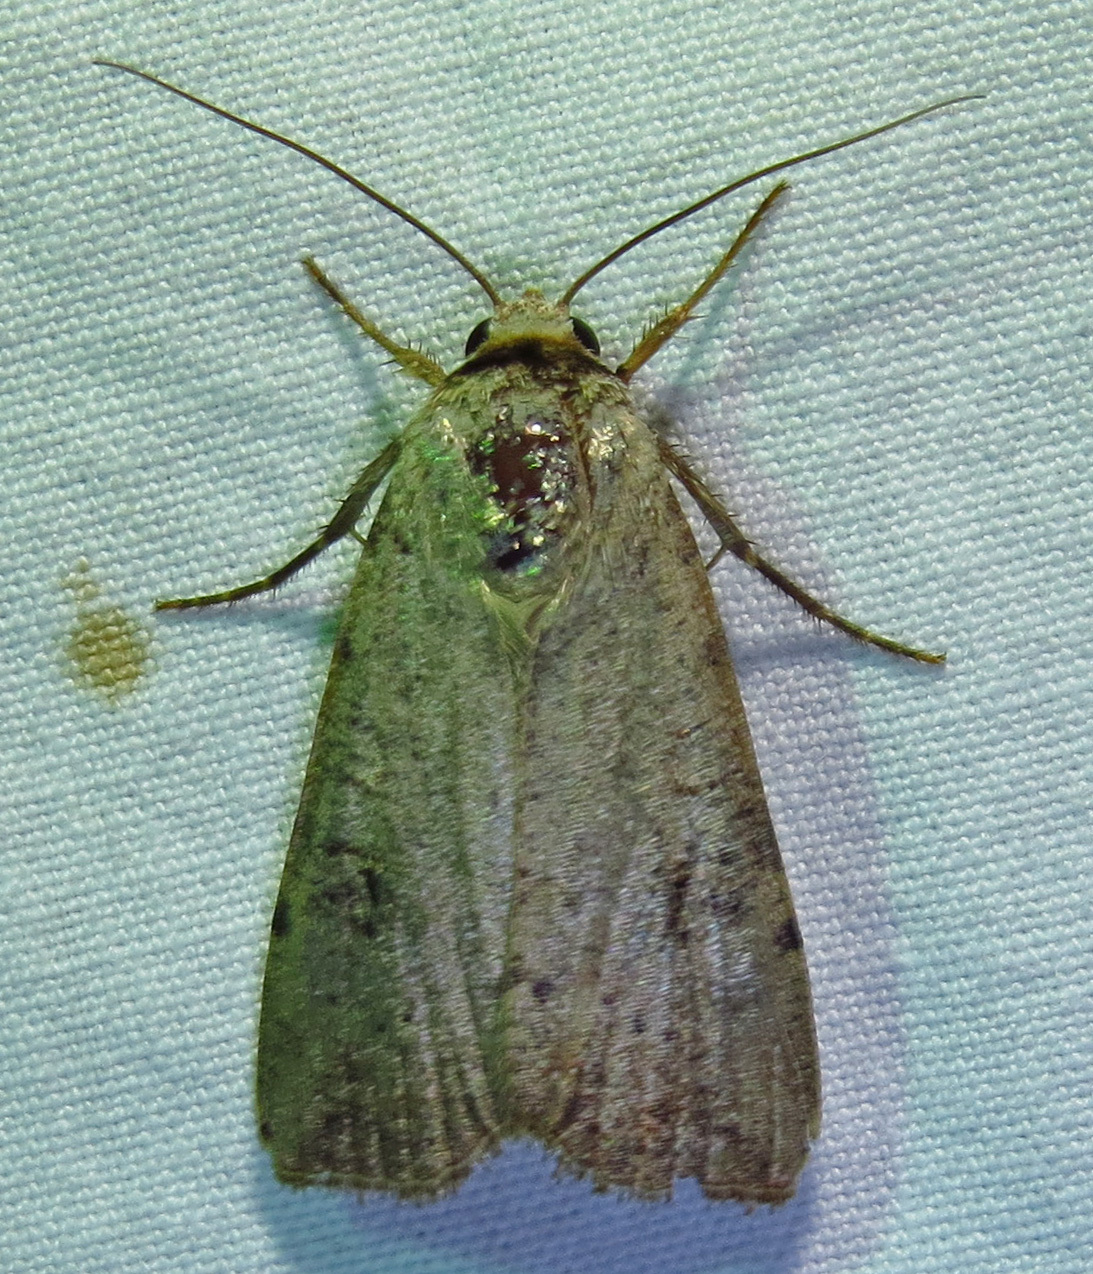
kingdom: Animalia
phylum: Arthropoda
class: Insecta
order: Lepidoptera
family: Noctuidae
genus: Anicla
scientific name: Anicla infecta
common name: Green cutworm
